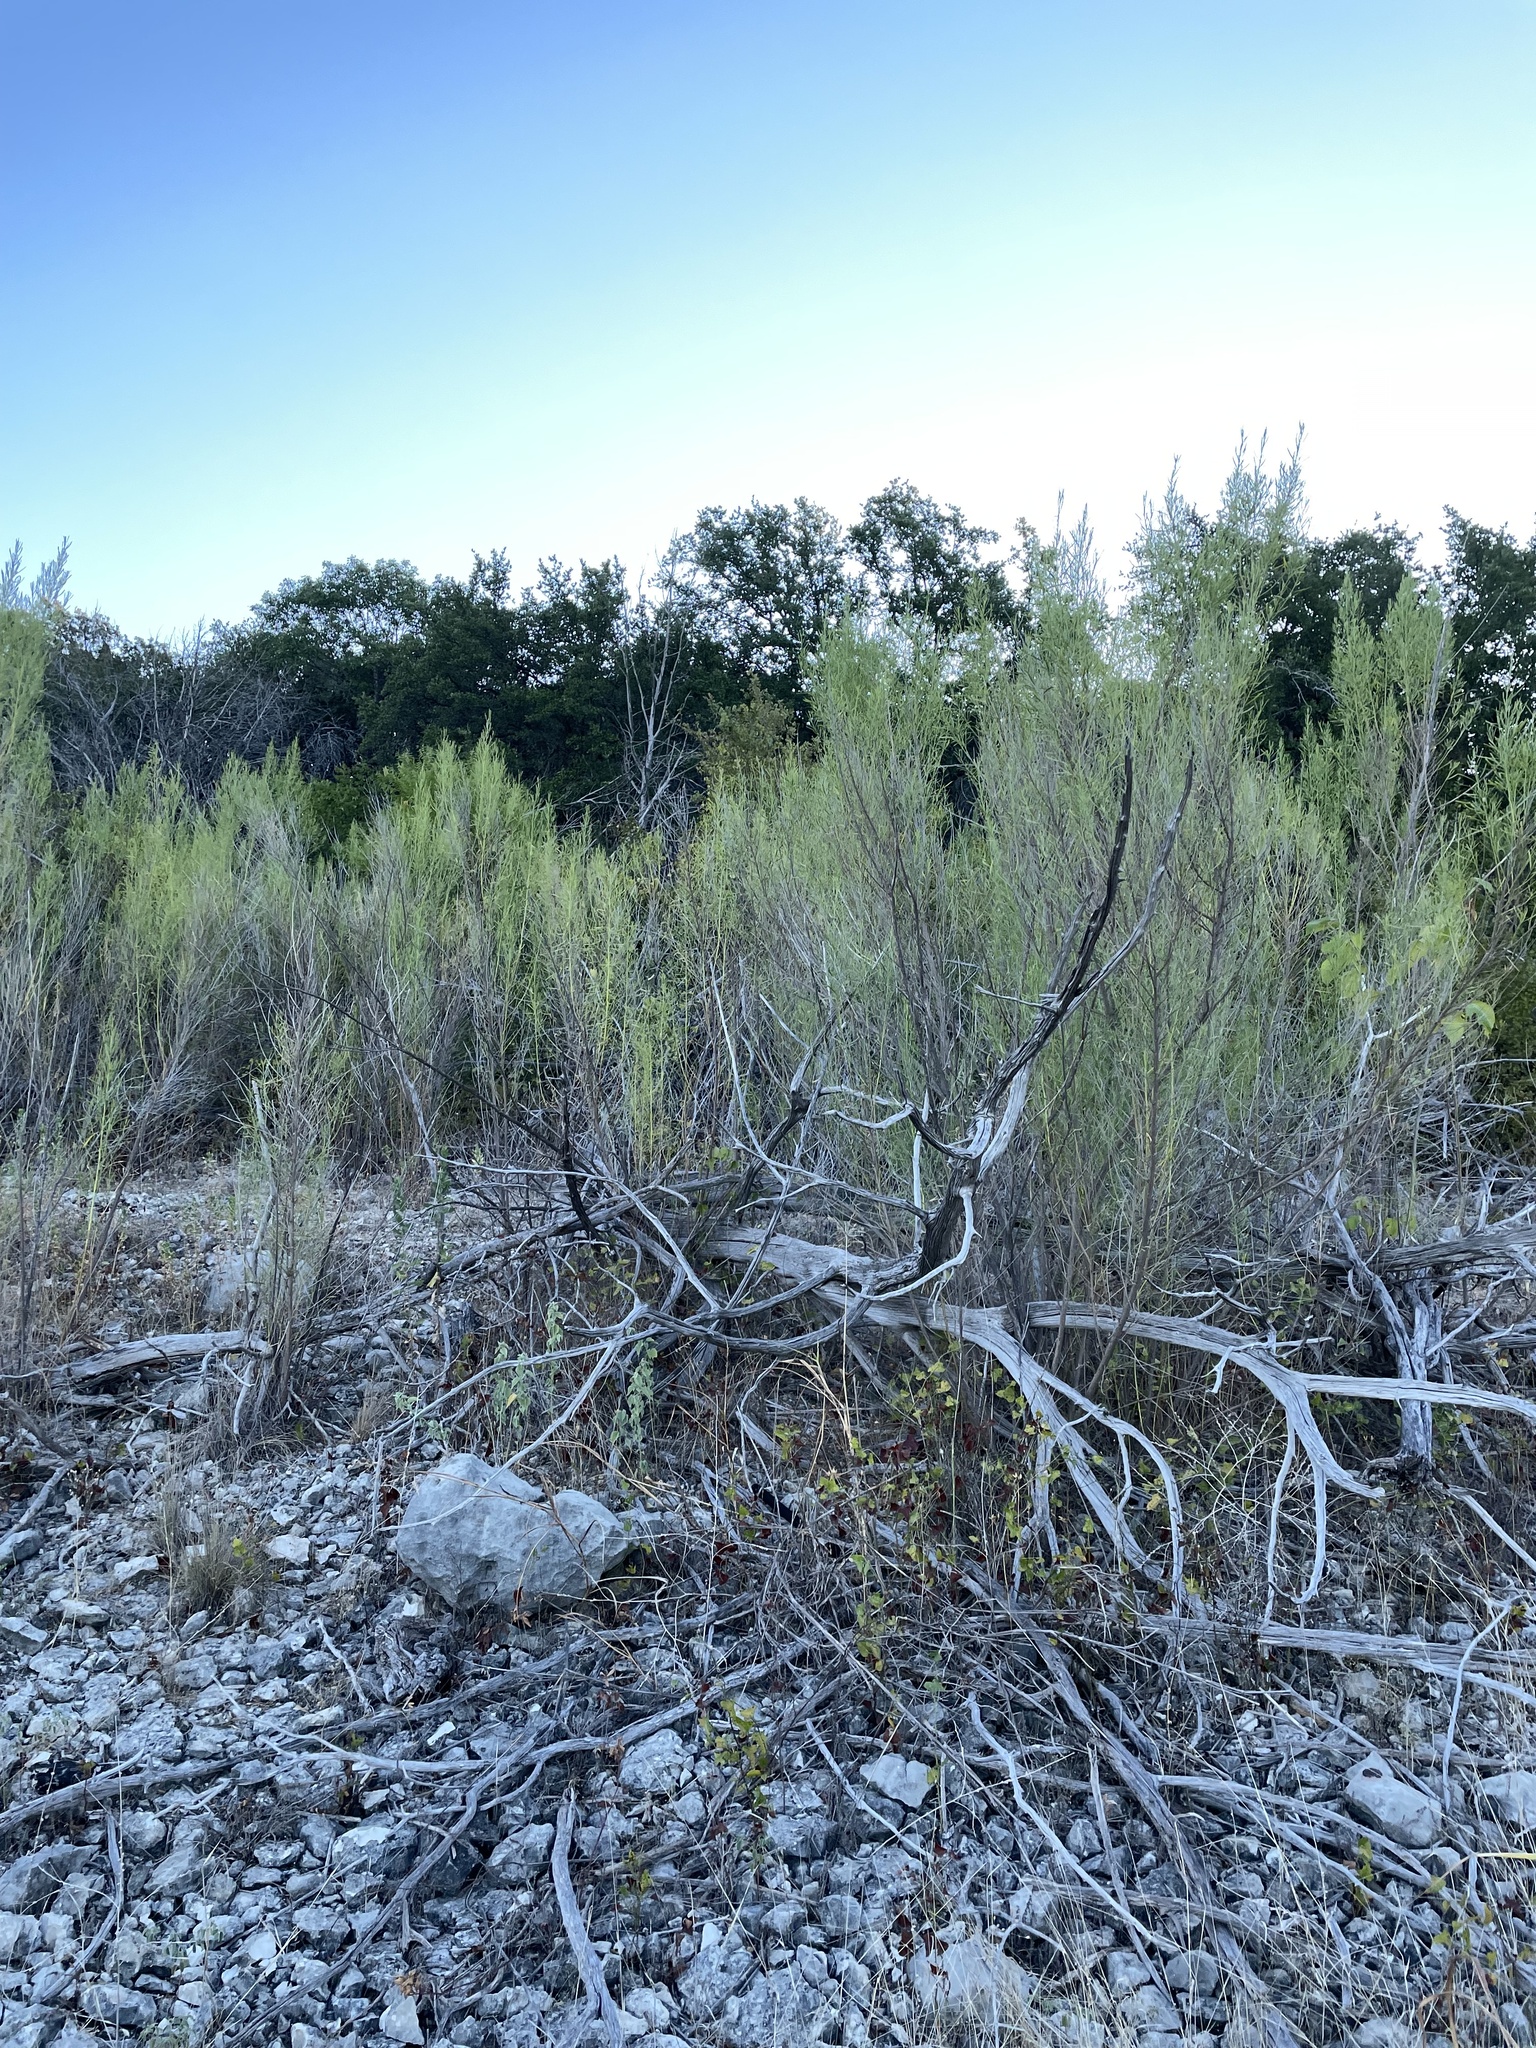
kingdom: Plantae
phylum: Tracheophyta
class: Magnoliopsida
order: Asterales
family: Asteraceae
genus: Baccharis
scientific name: Baccharis neglecta
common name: Roosevelt-weed
